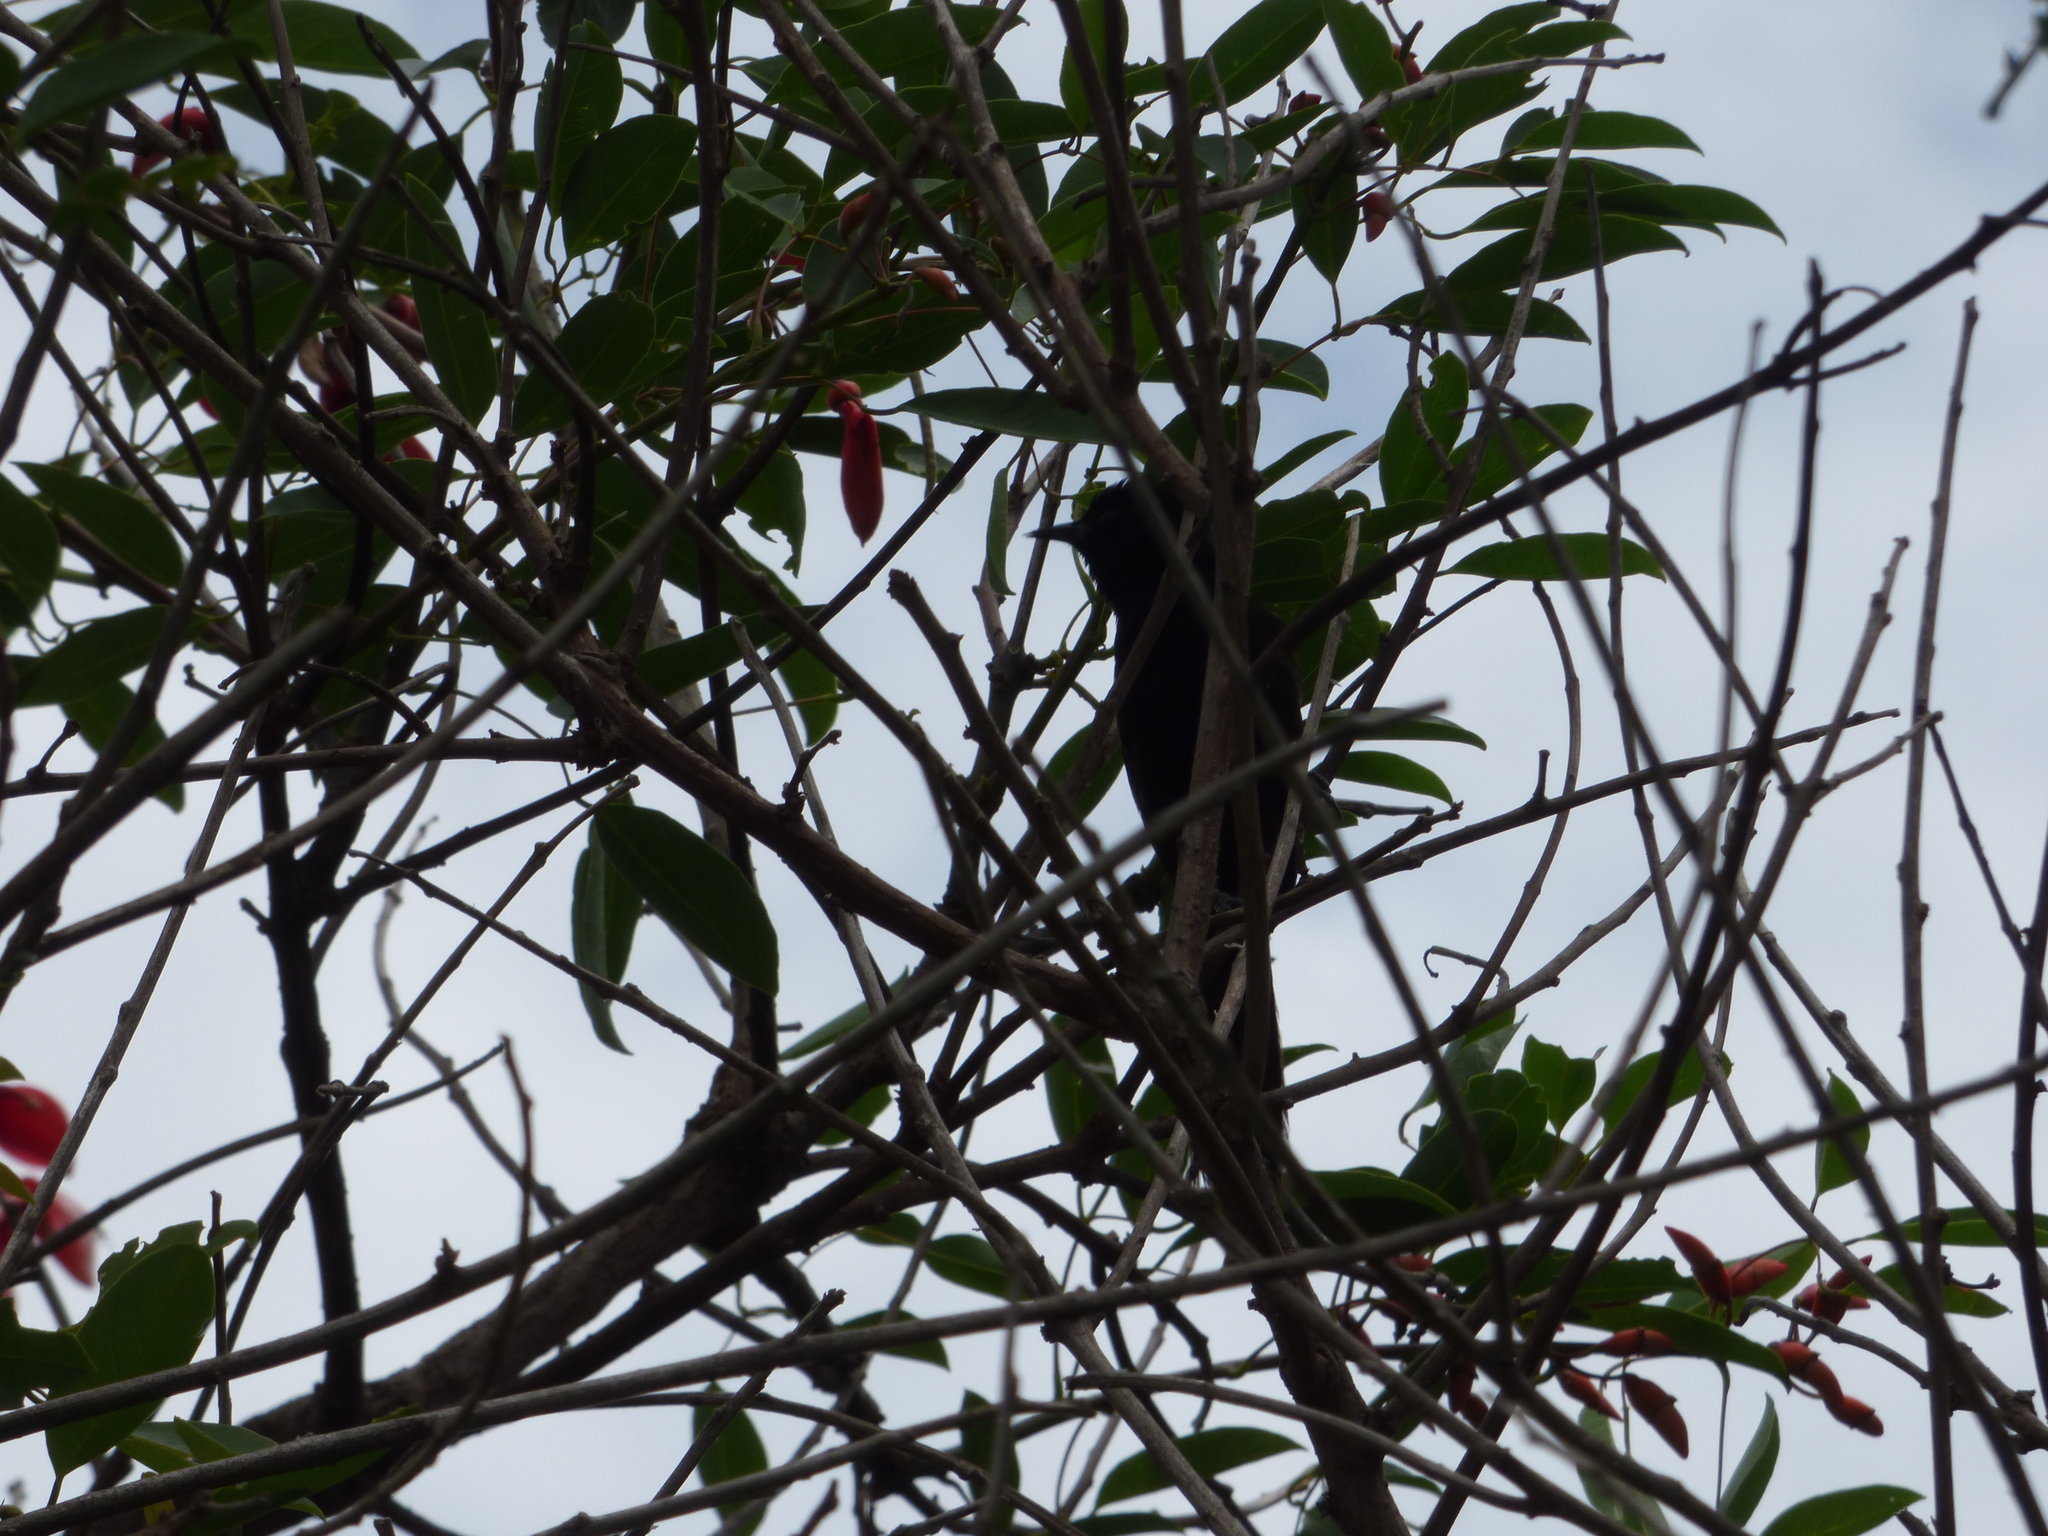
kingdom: Animalia
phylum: Chordata
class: Aves
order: Passeriformes
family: Icteridae
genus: Icterus
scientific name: Icterus cayanensis
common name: Epaulet oriole
